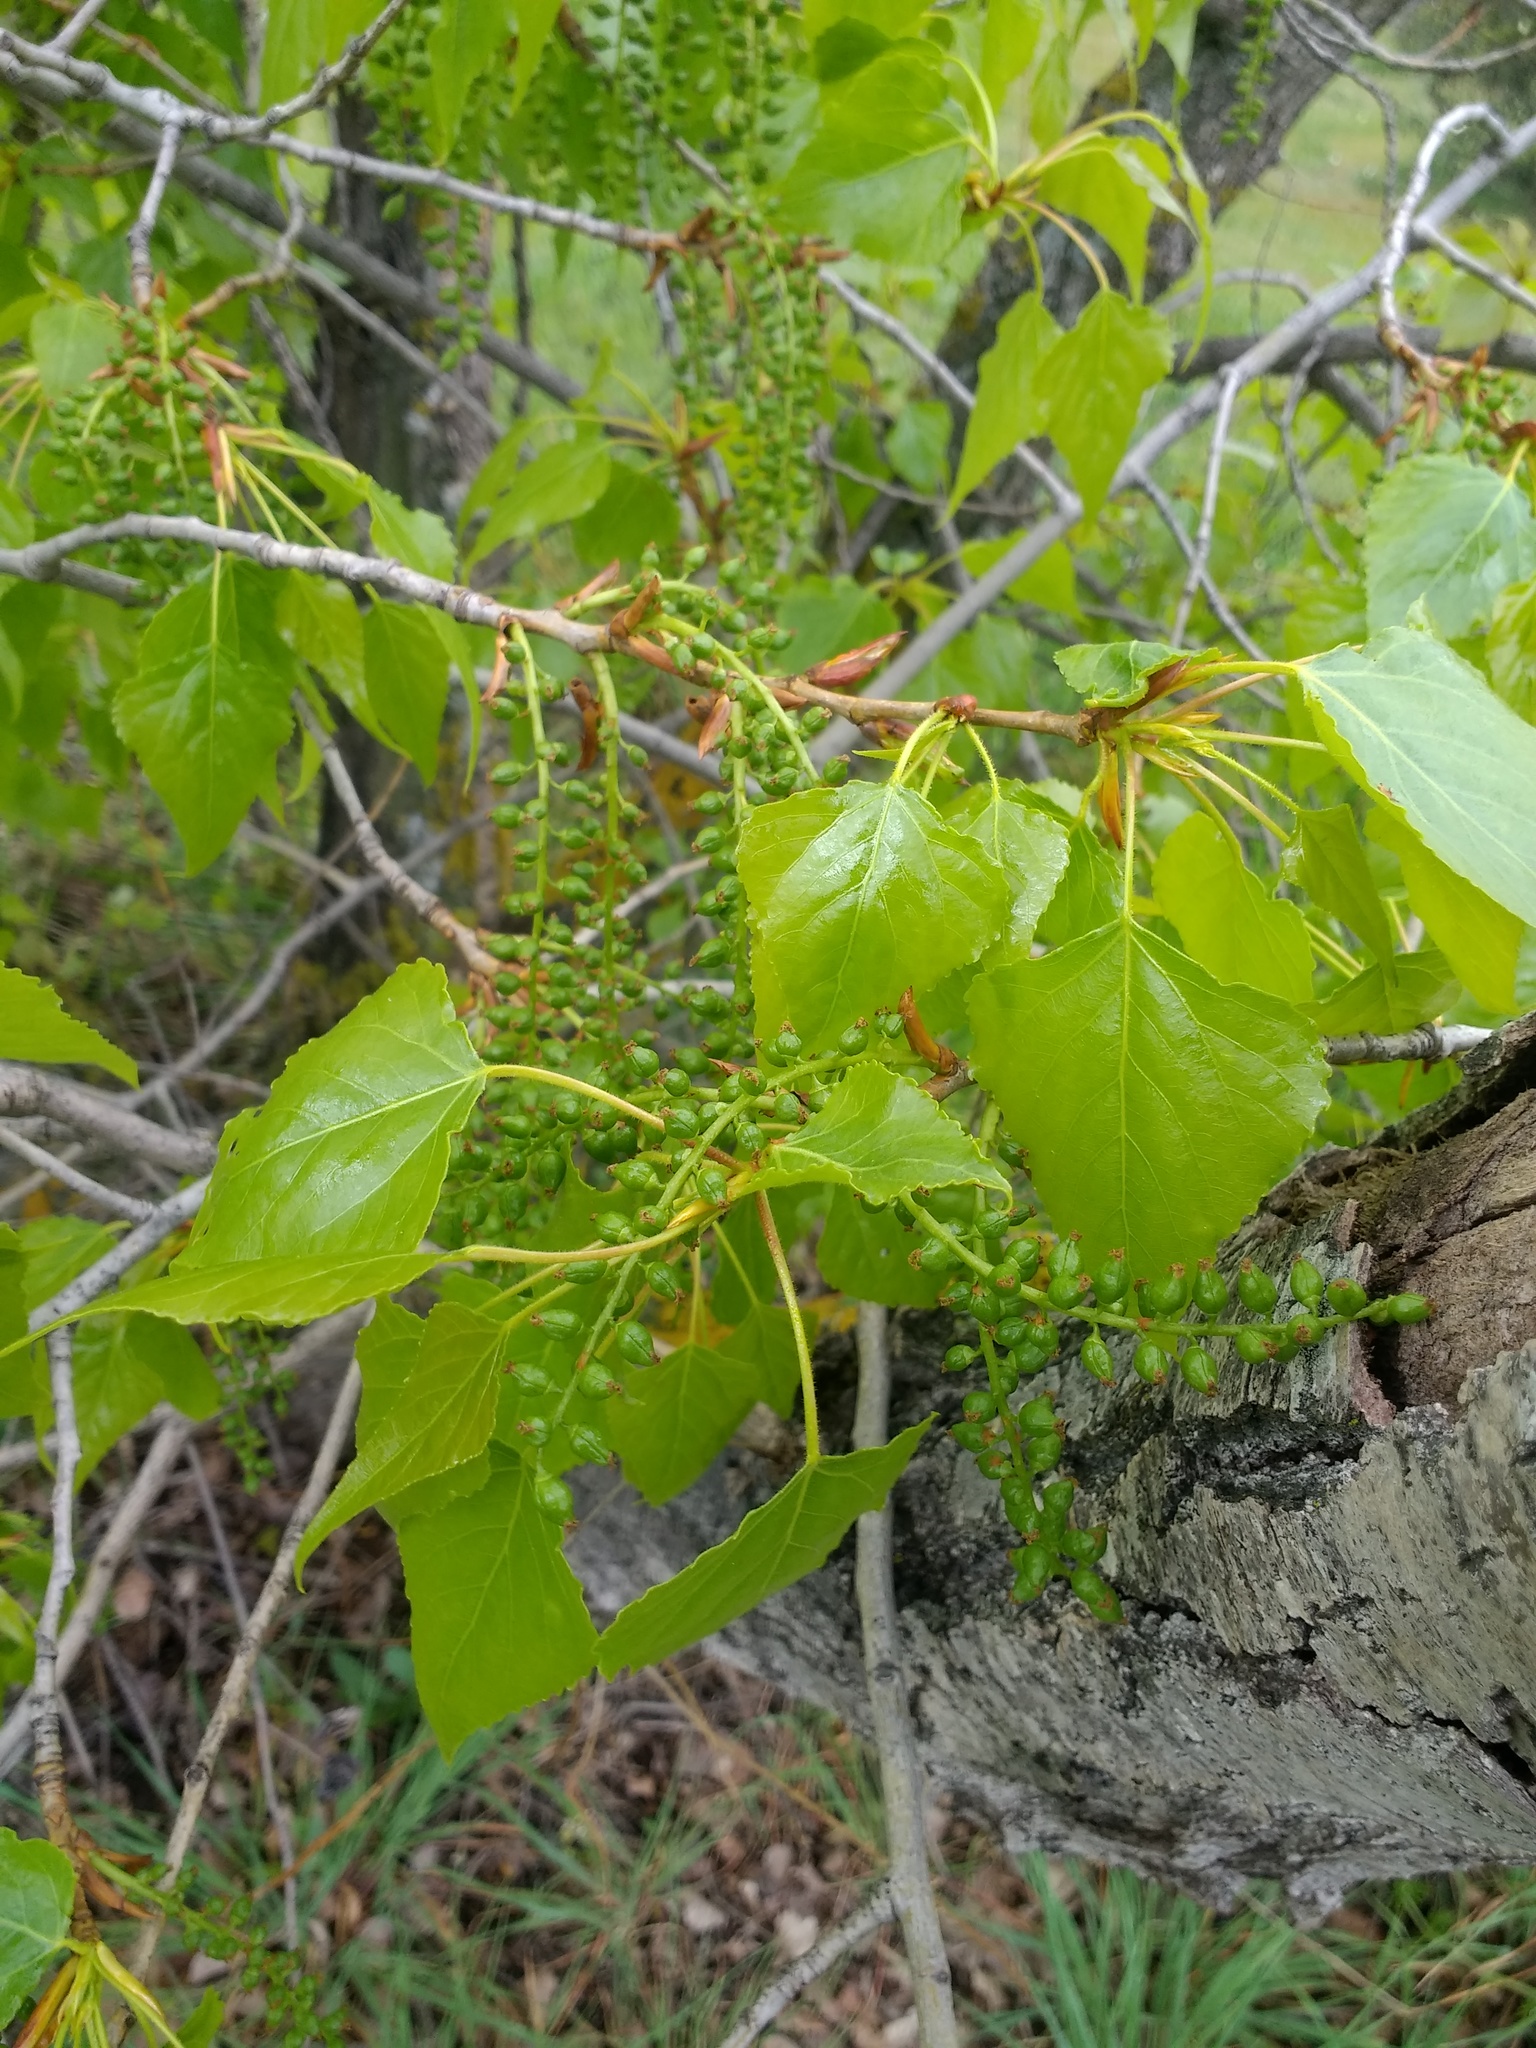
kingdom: Plantae
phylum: Tracheophyta
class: Magnoliopsida
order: Malpighiales
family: Salicaceae
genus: Populus
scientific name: Populus nigra
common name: Black poplar
